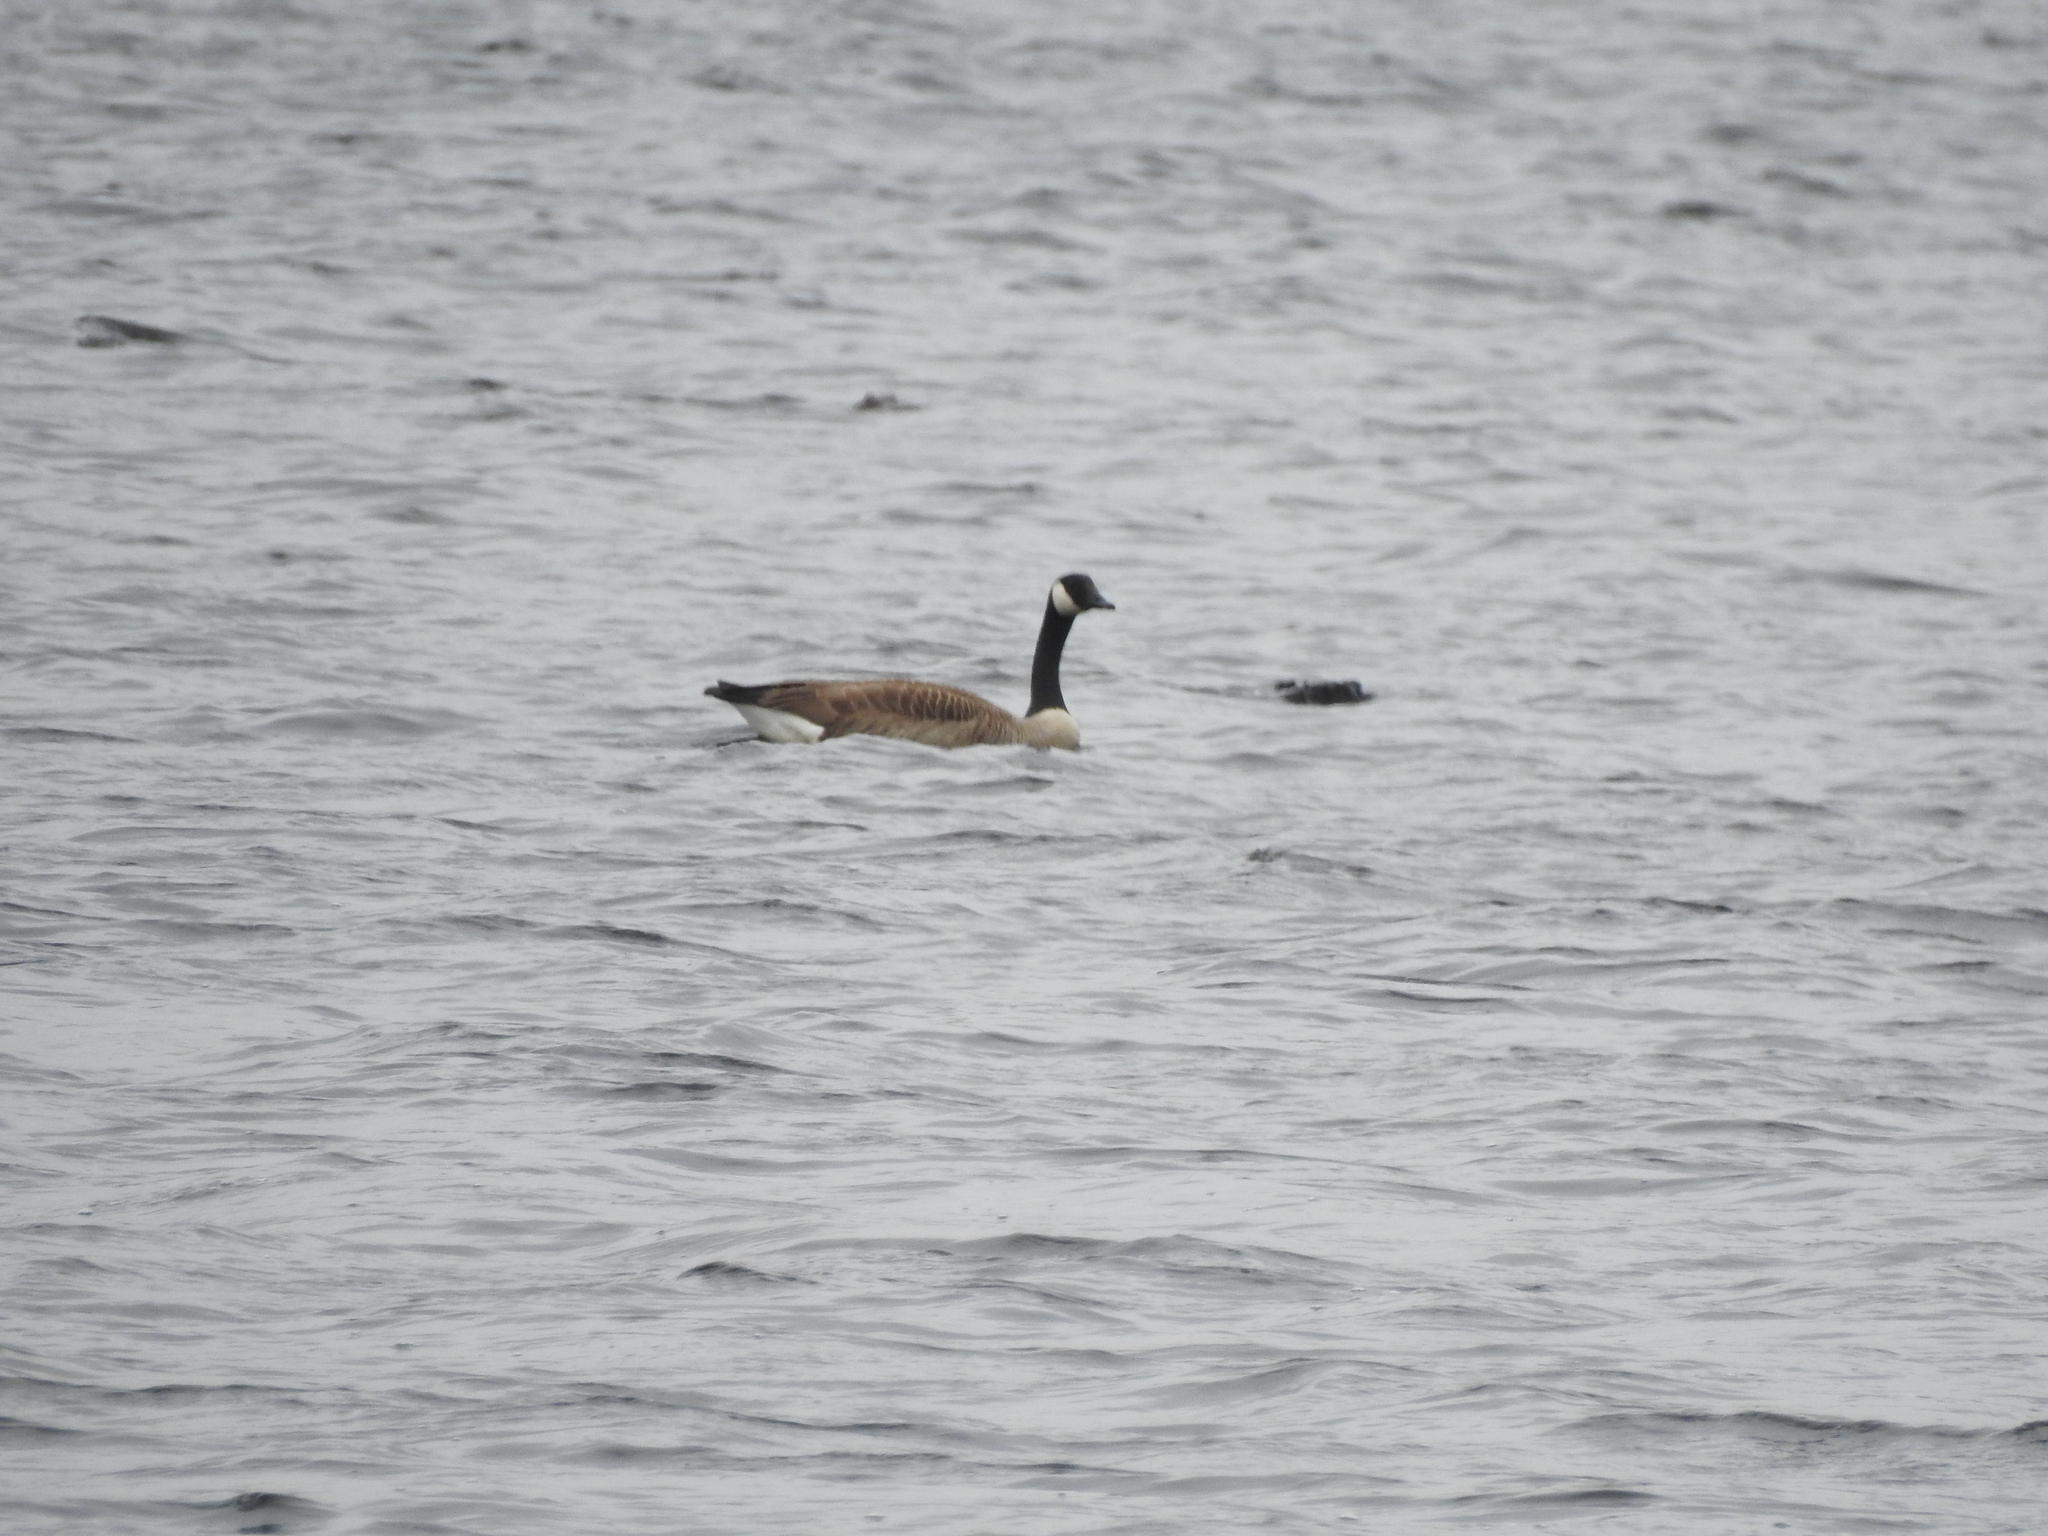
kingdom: Animalia
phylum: Chordata
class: Aves
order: Anseriformes
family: Anatidae
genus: Branta
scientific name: Branta canadensis
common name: Canada goose
